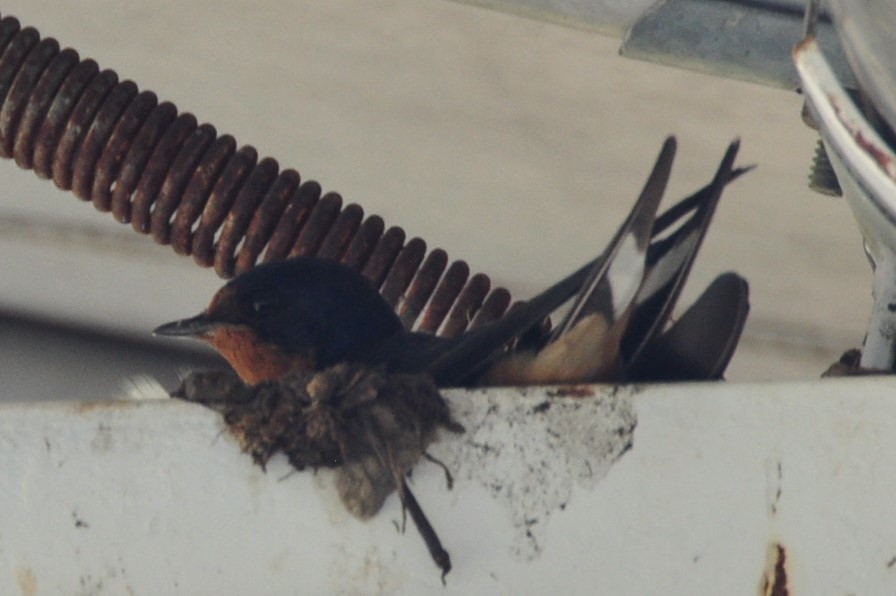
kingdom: Animalia
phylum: Chordata
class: Aves
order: Passeriformes
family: Hirundinidae
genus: Hirundo
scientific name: Hirundo rustica
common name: Barn swallow
